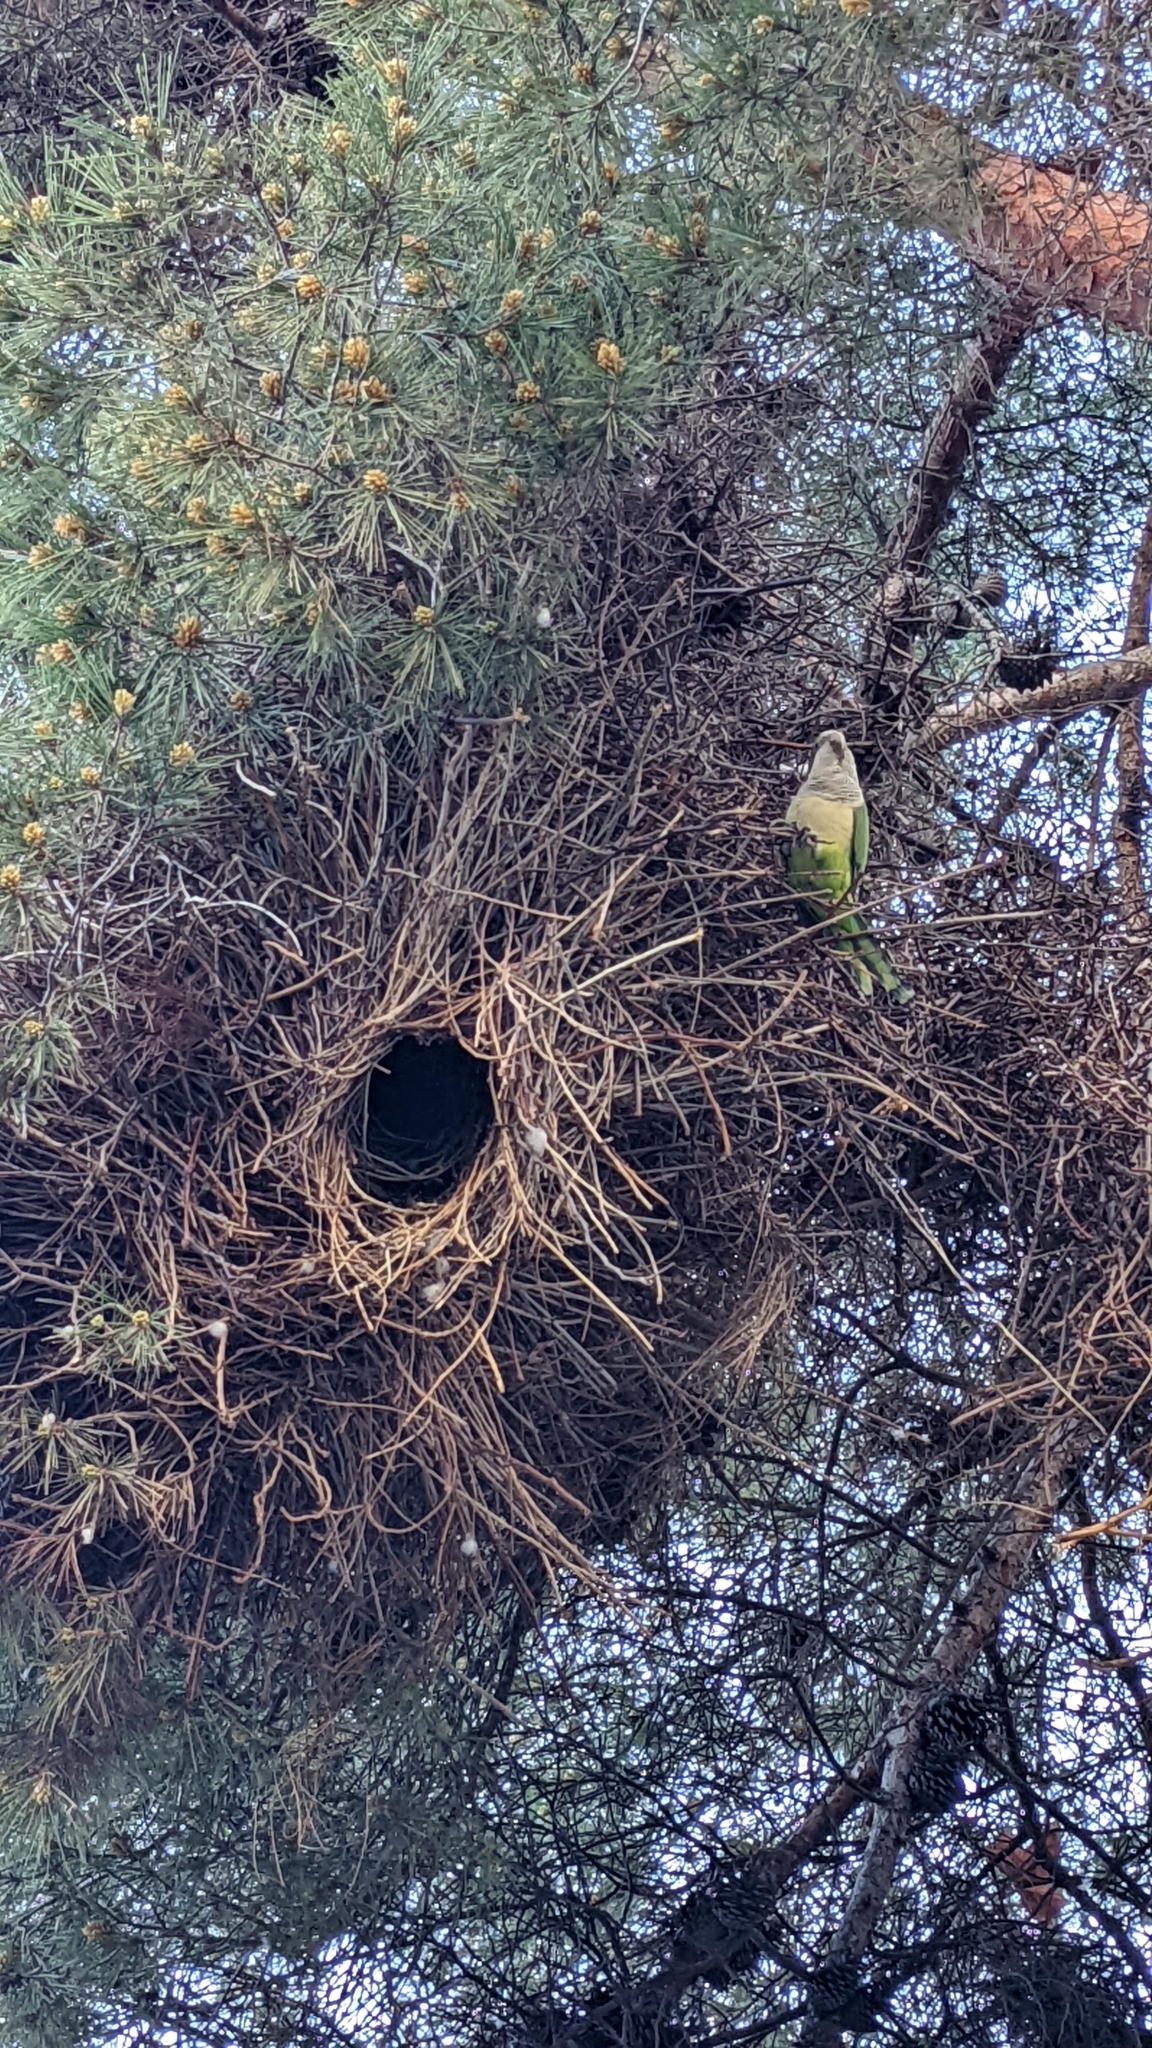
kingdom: Animalia
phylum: Chordata
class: Aves
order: Psittaciformes
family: Psittacidae
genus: Myiopsitta
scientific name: Myiopsitta monachus
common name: Monk parakeet
